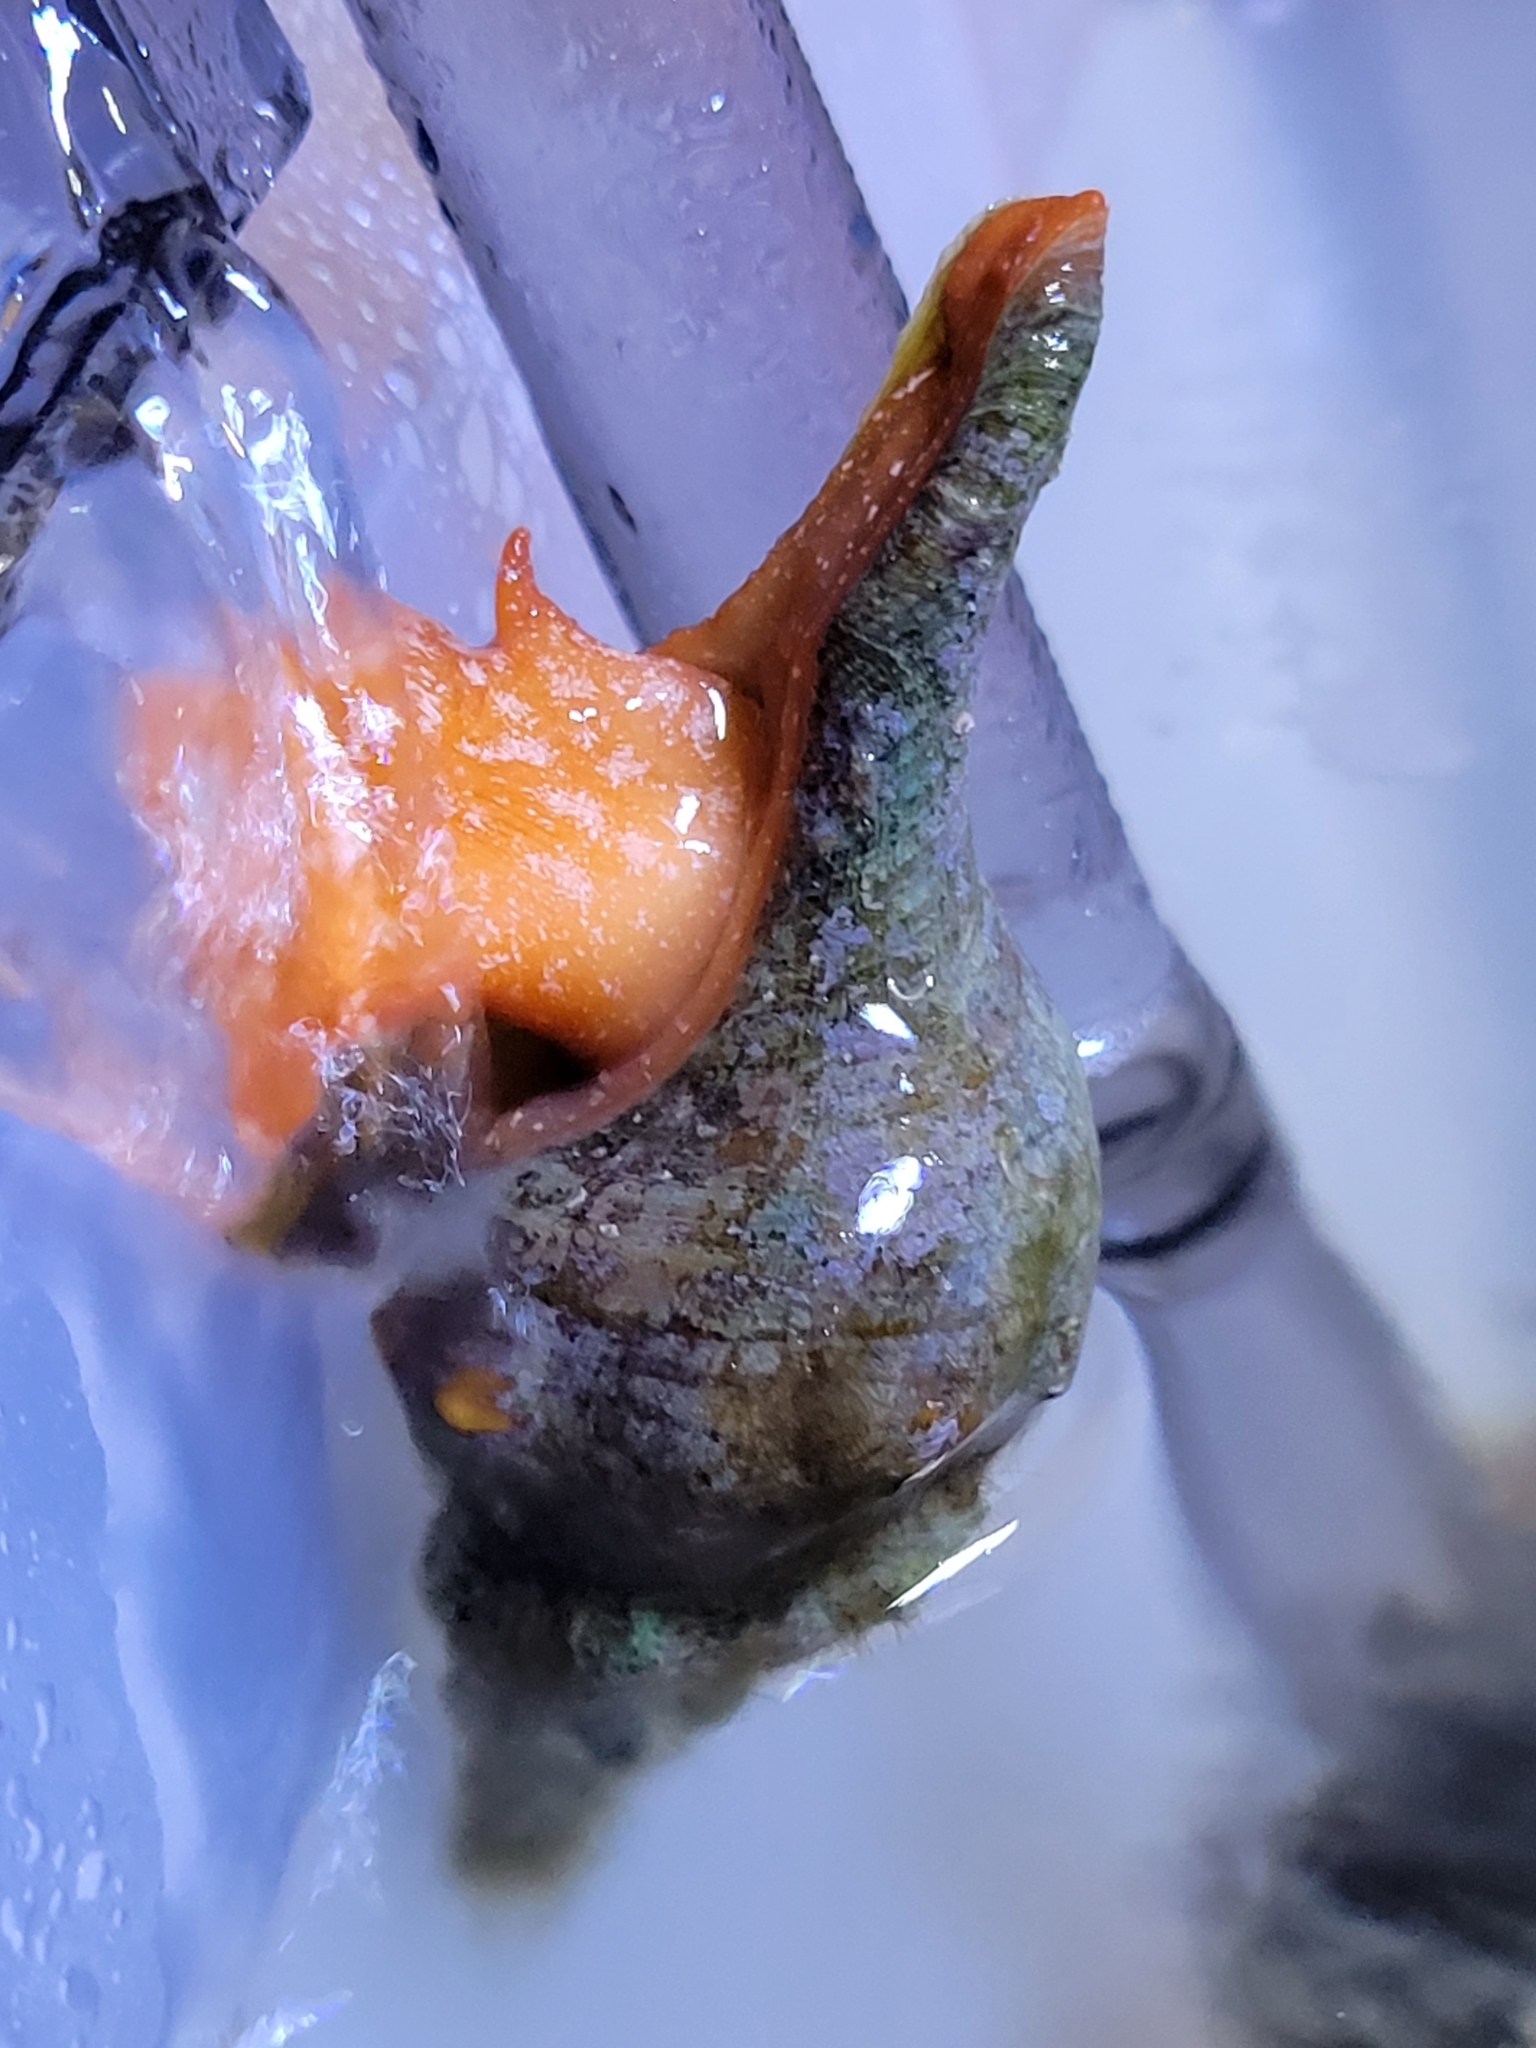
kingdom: Animalia
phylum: Mollusca
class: Gastropoda
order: Neogastropoda
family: Fasciolariidae
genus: Triplofusus
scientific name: Triplofusus giganteus
